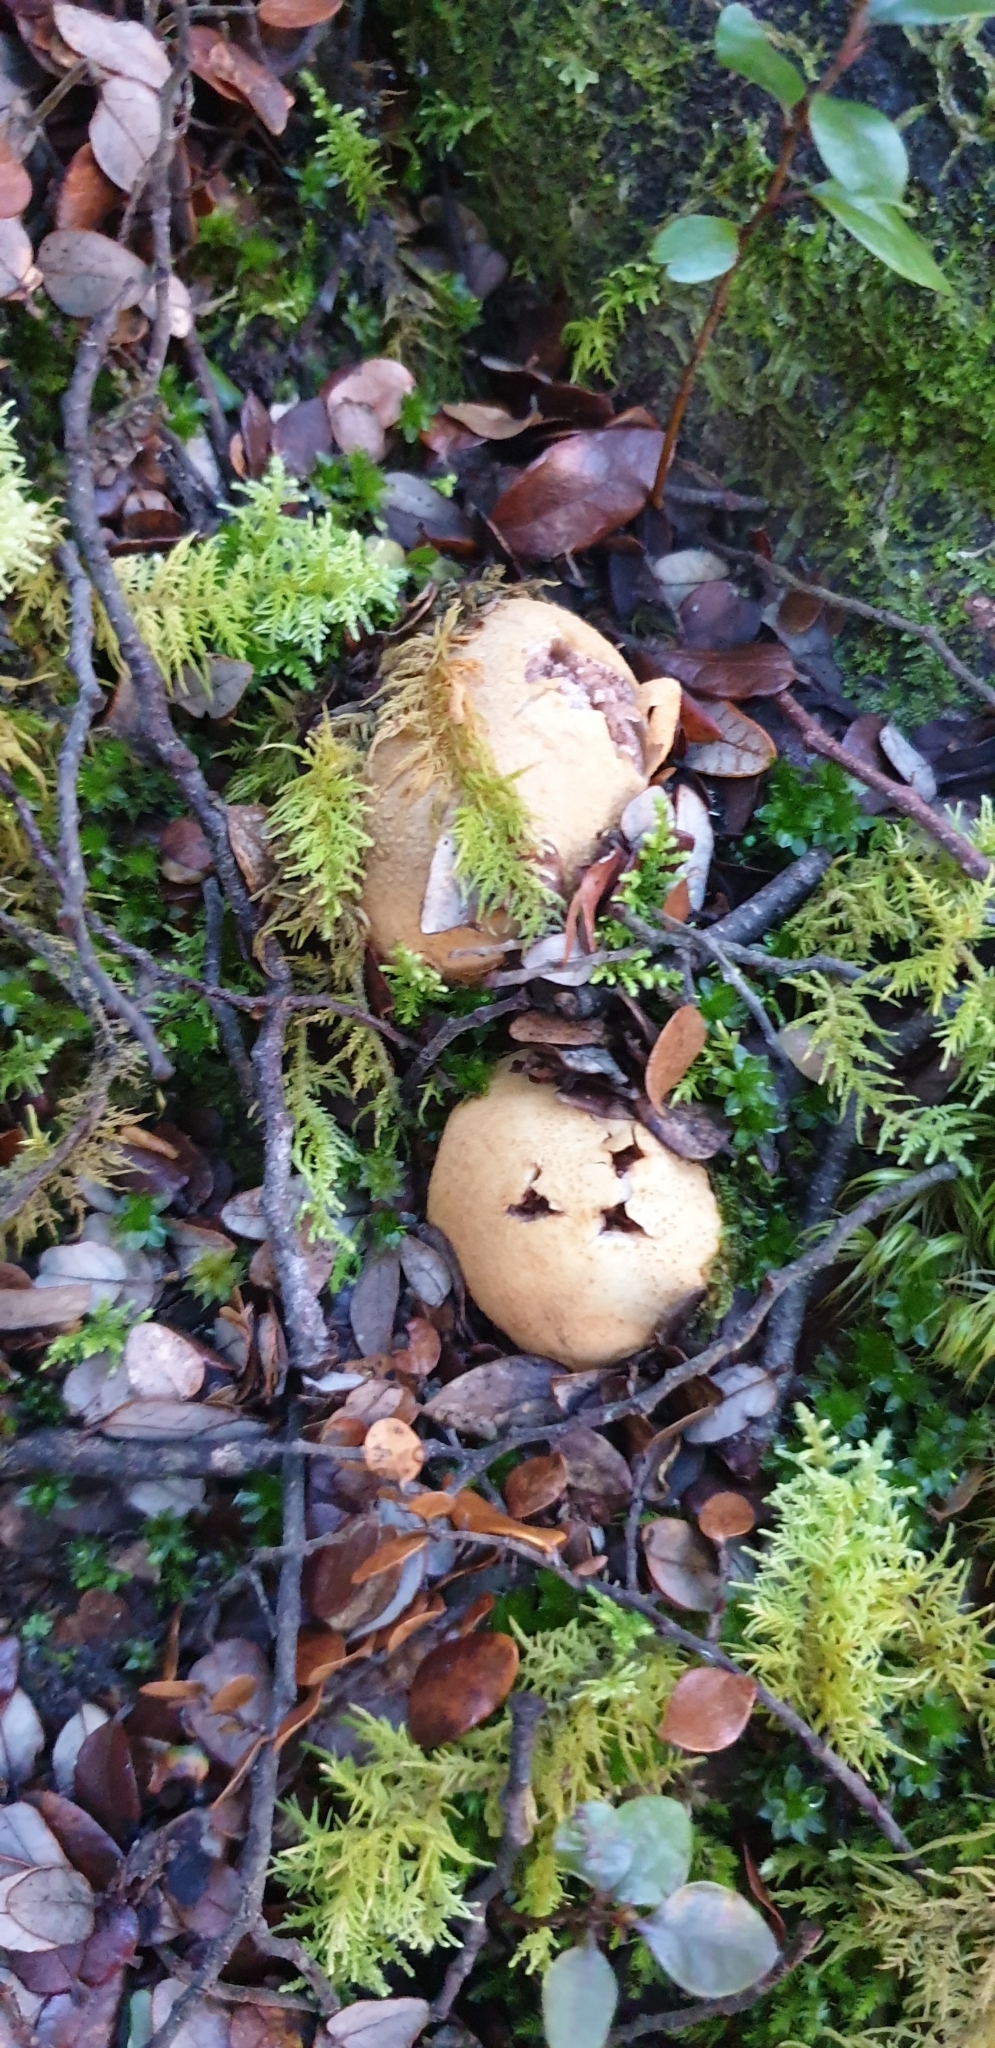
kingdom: Fungi
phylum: Basidiomycota
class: Agaricomycetes
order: Agaricales
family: Cortinariaceae
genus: Cortinarius
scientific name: Cortinarius cartilagineus
